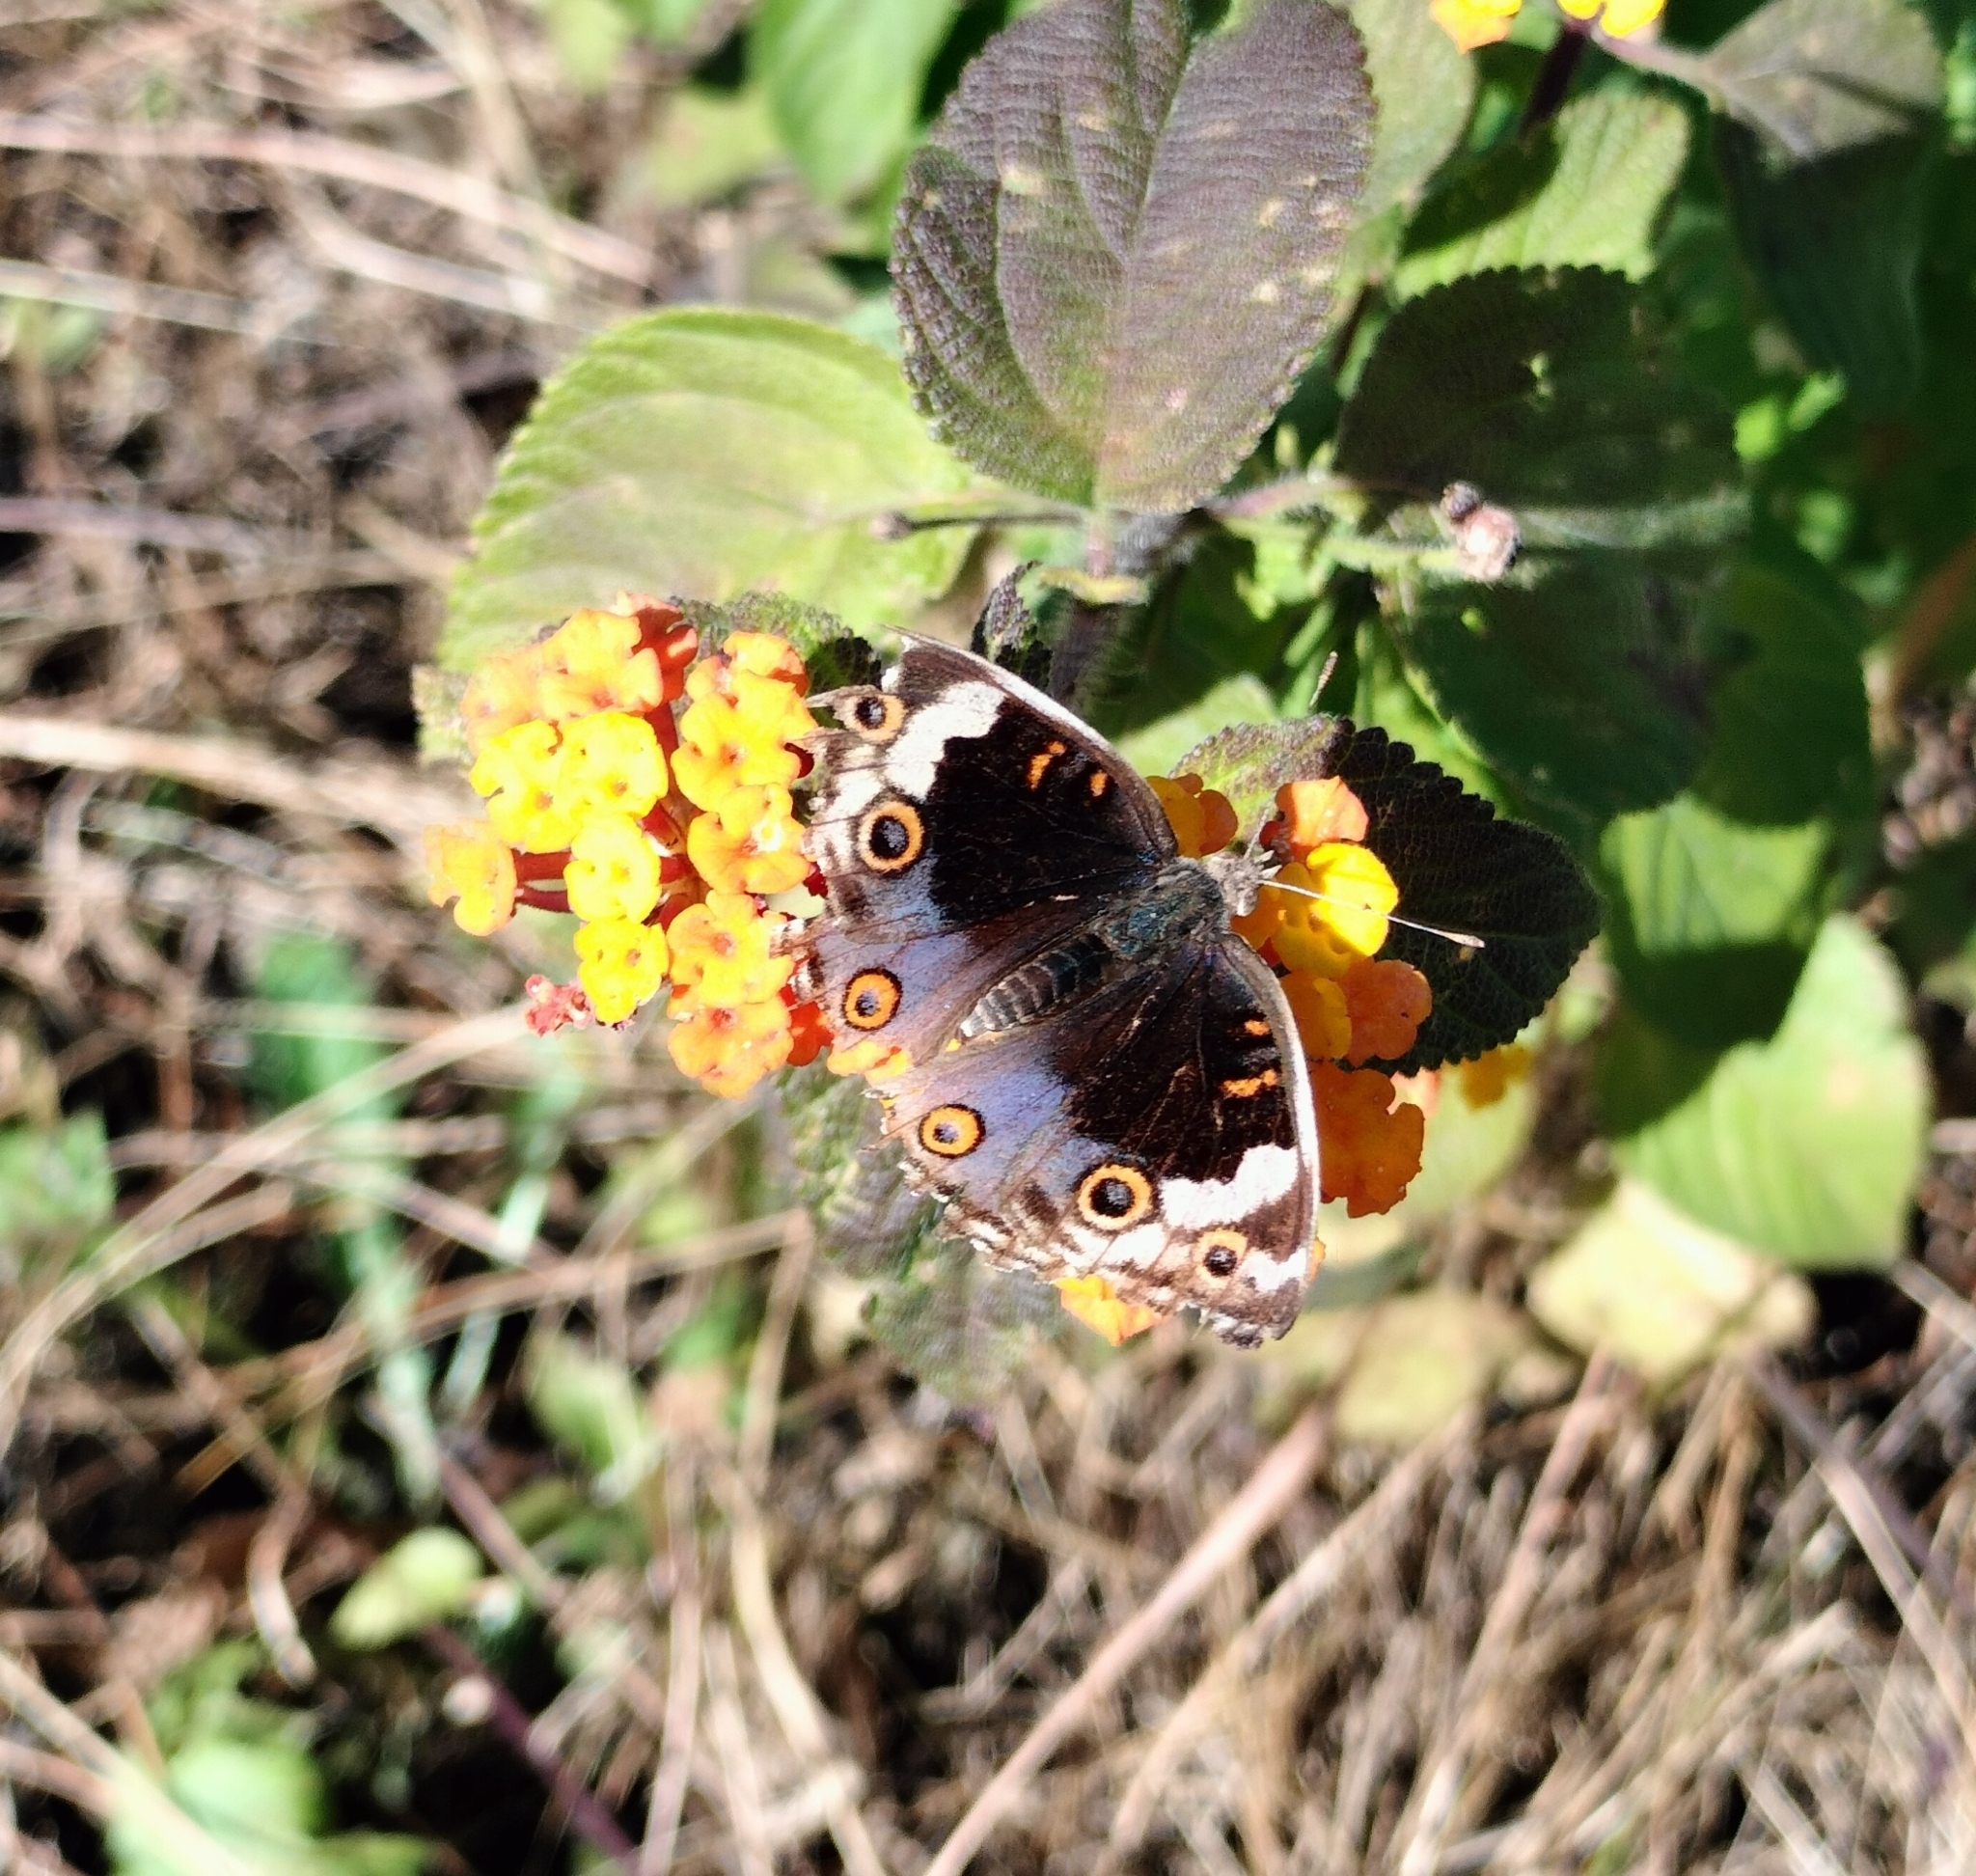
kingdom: Animalia
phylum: Arthropoda
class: Insecta
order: Lepidoptera
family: Nymphalidae
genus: Junonia
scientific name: Junonia orithya
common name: Blue pansy
